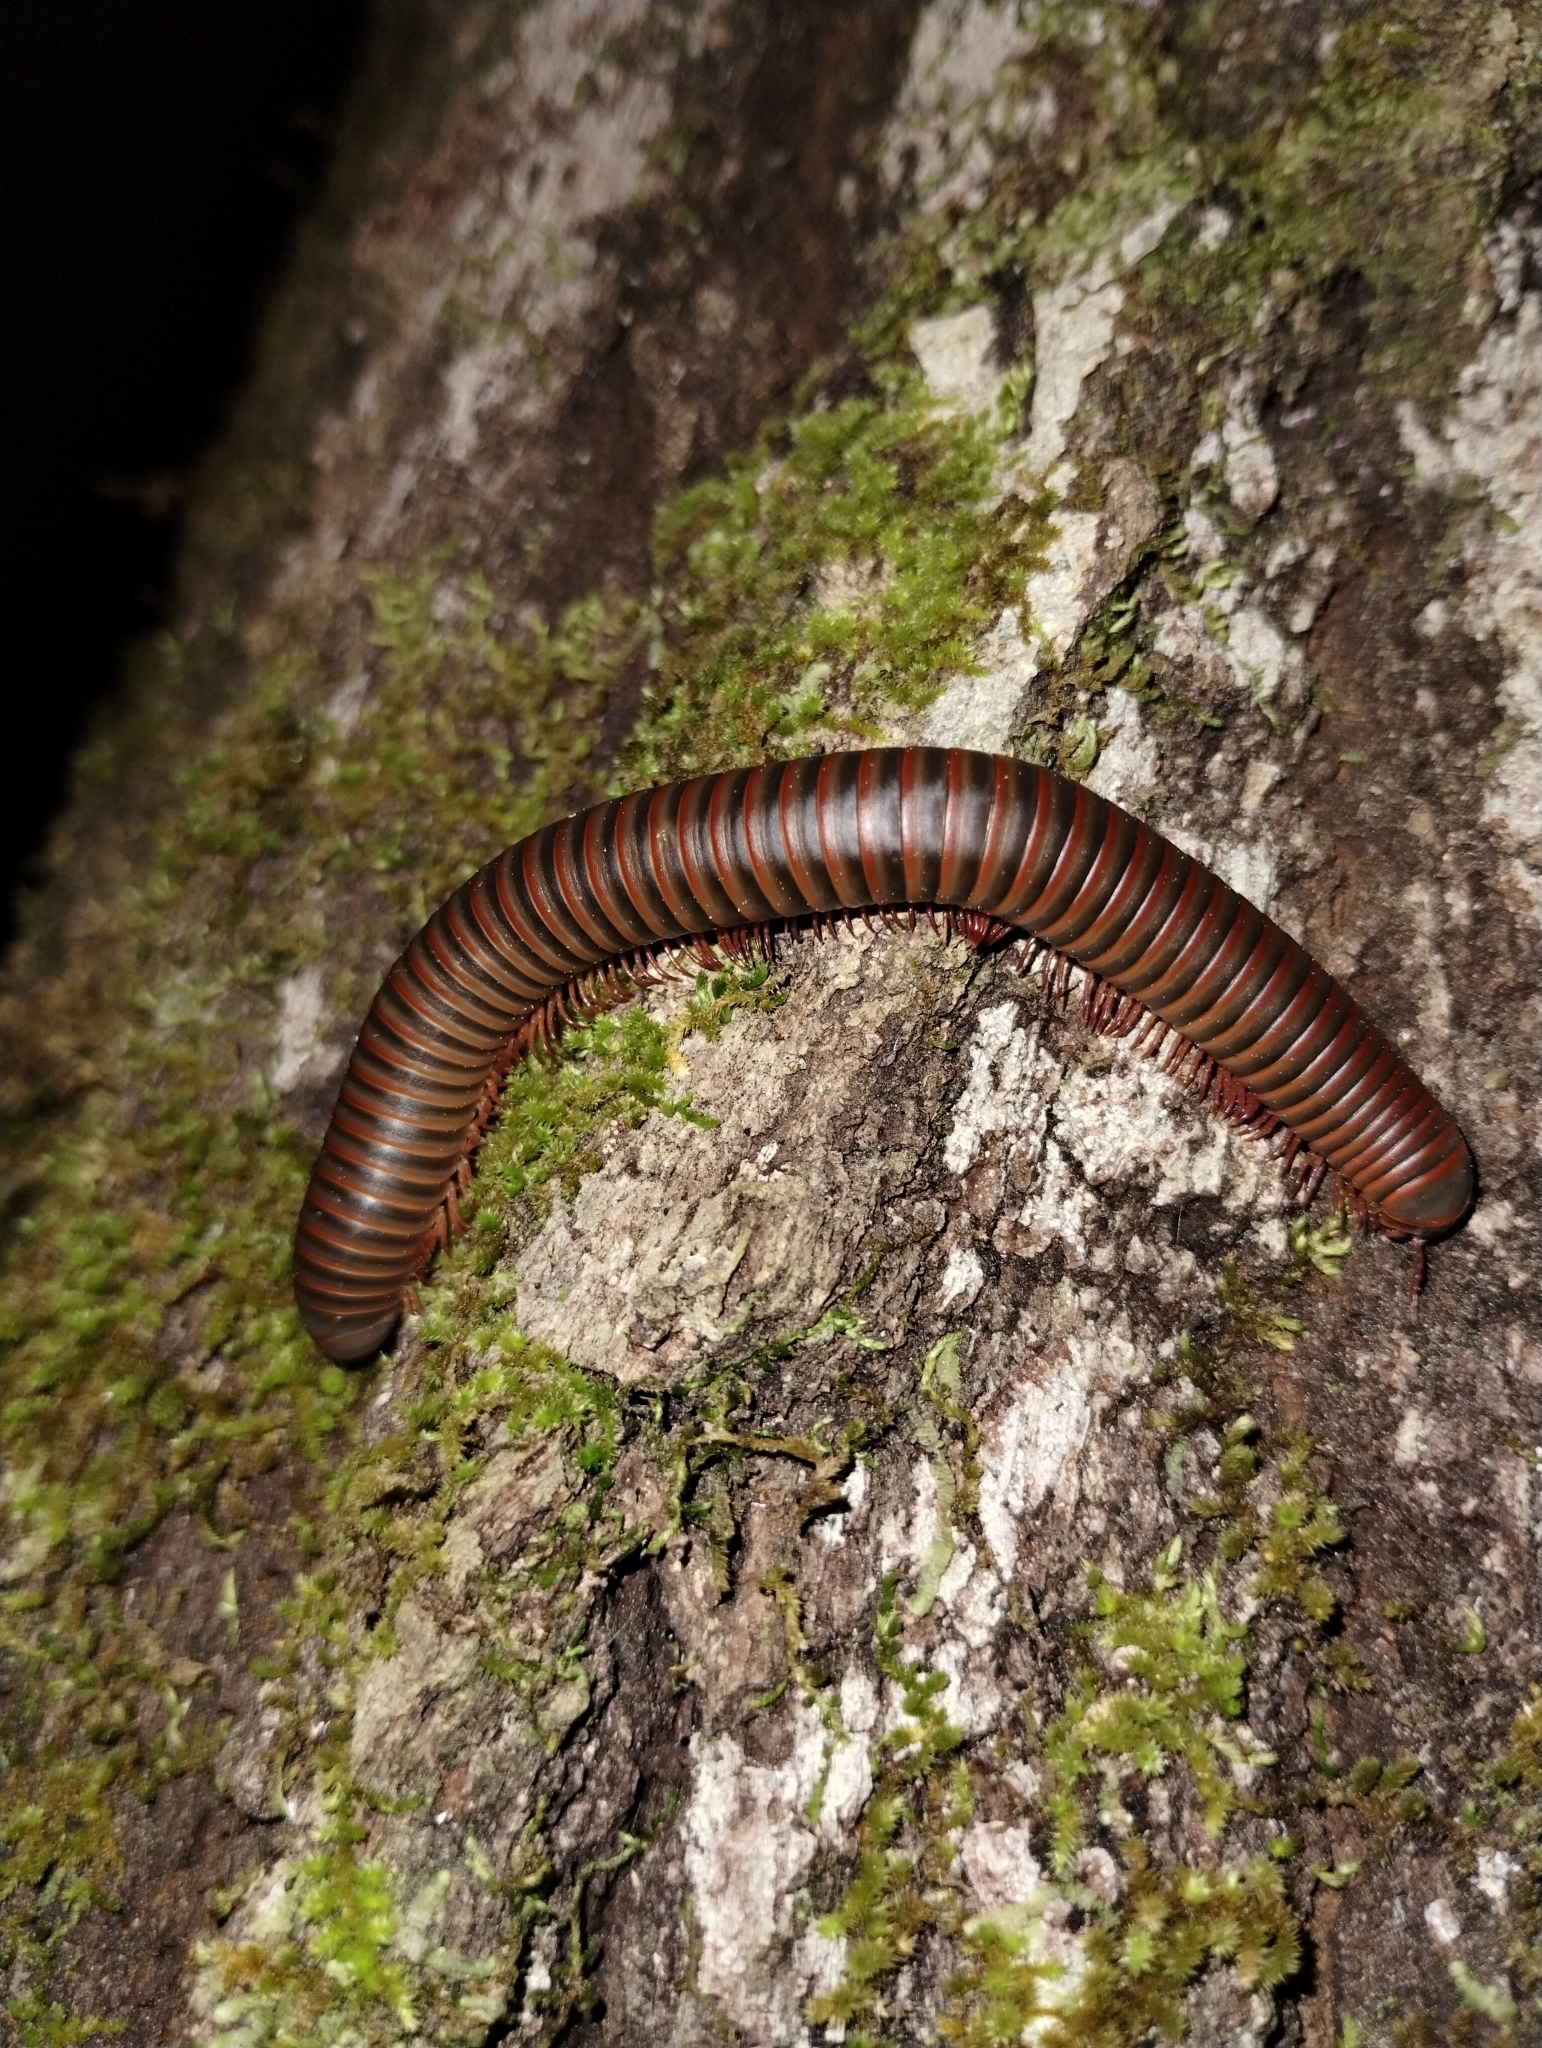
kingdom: Animalia
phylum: Arthropoda
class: Diplopoda
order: Spirobolida
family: Spirobolidae
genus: Narceus
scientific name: Narceus
